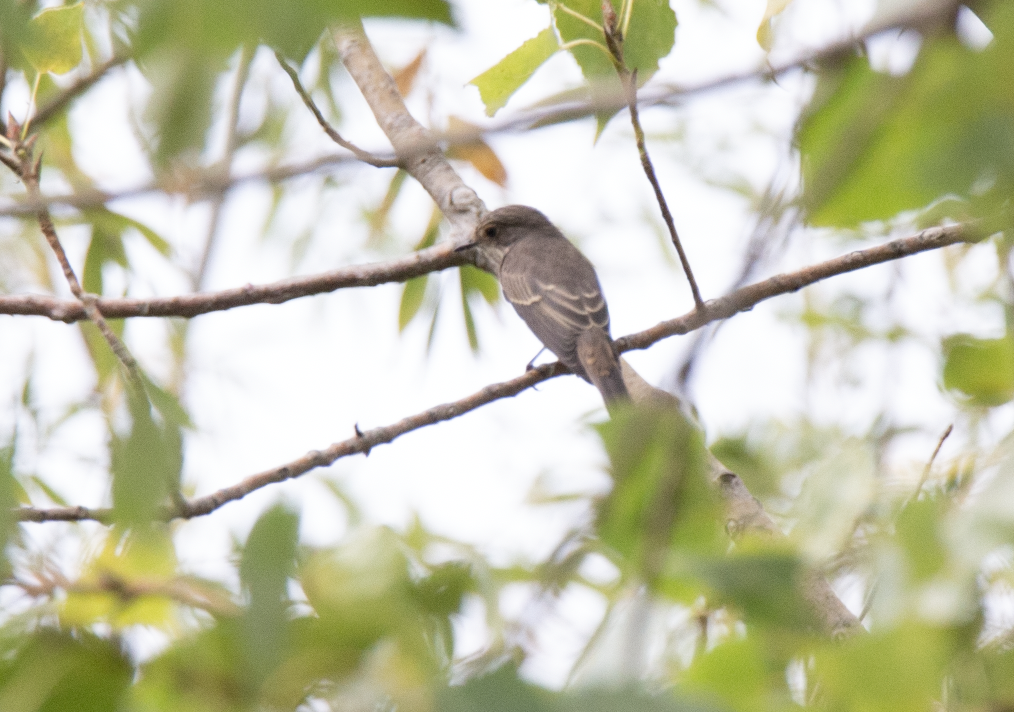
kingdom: Animalia
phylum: Chordata
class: Aves
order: Passeriformes
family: Muscicapidae
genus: Muscicapa
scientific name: Muscicapa striata
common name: Spotted flycatcher
